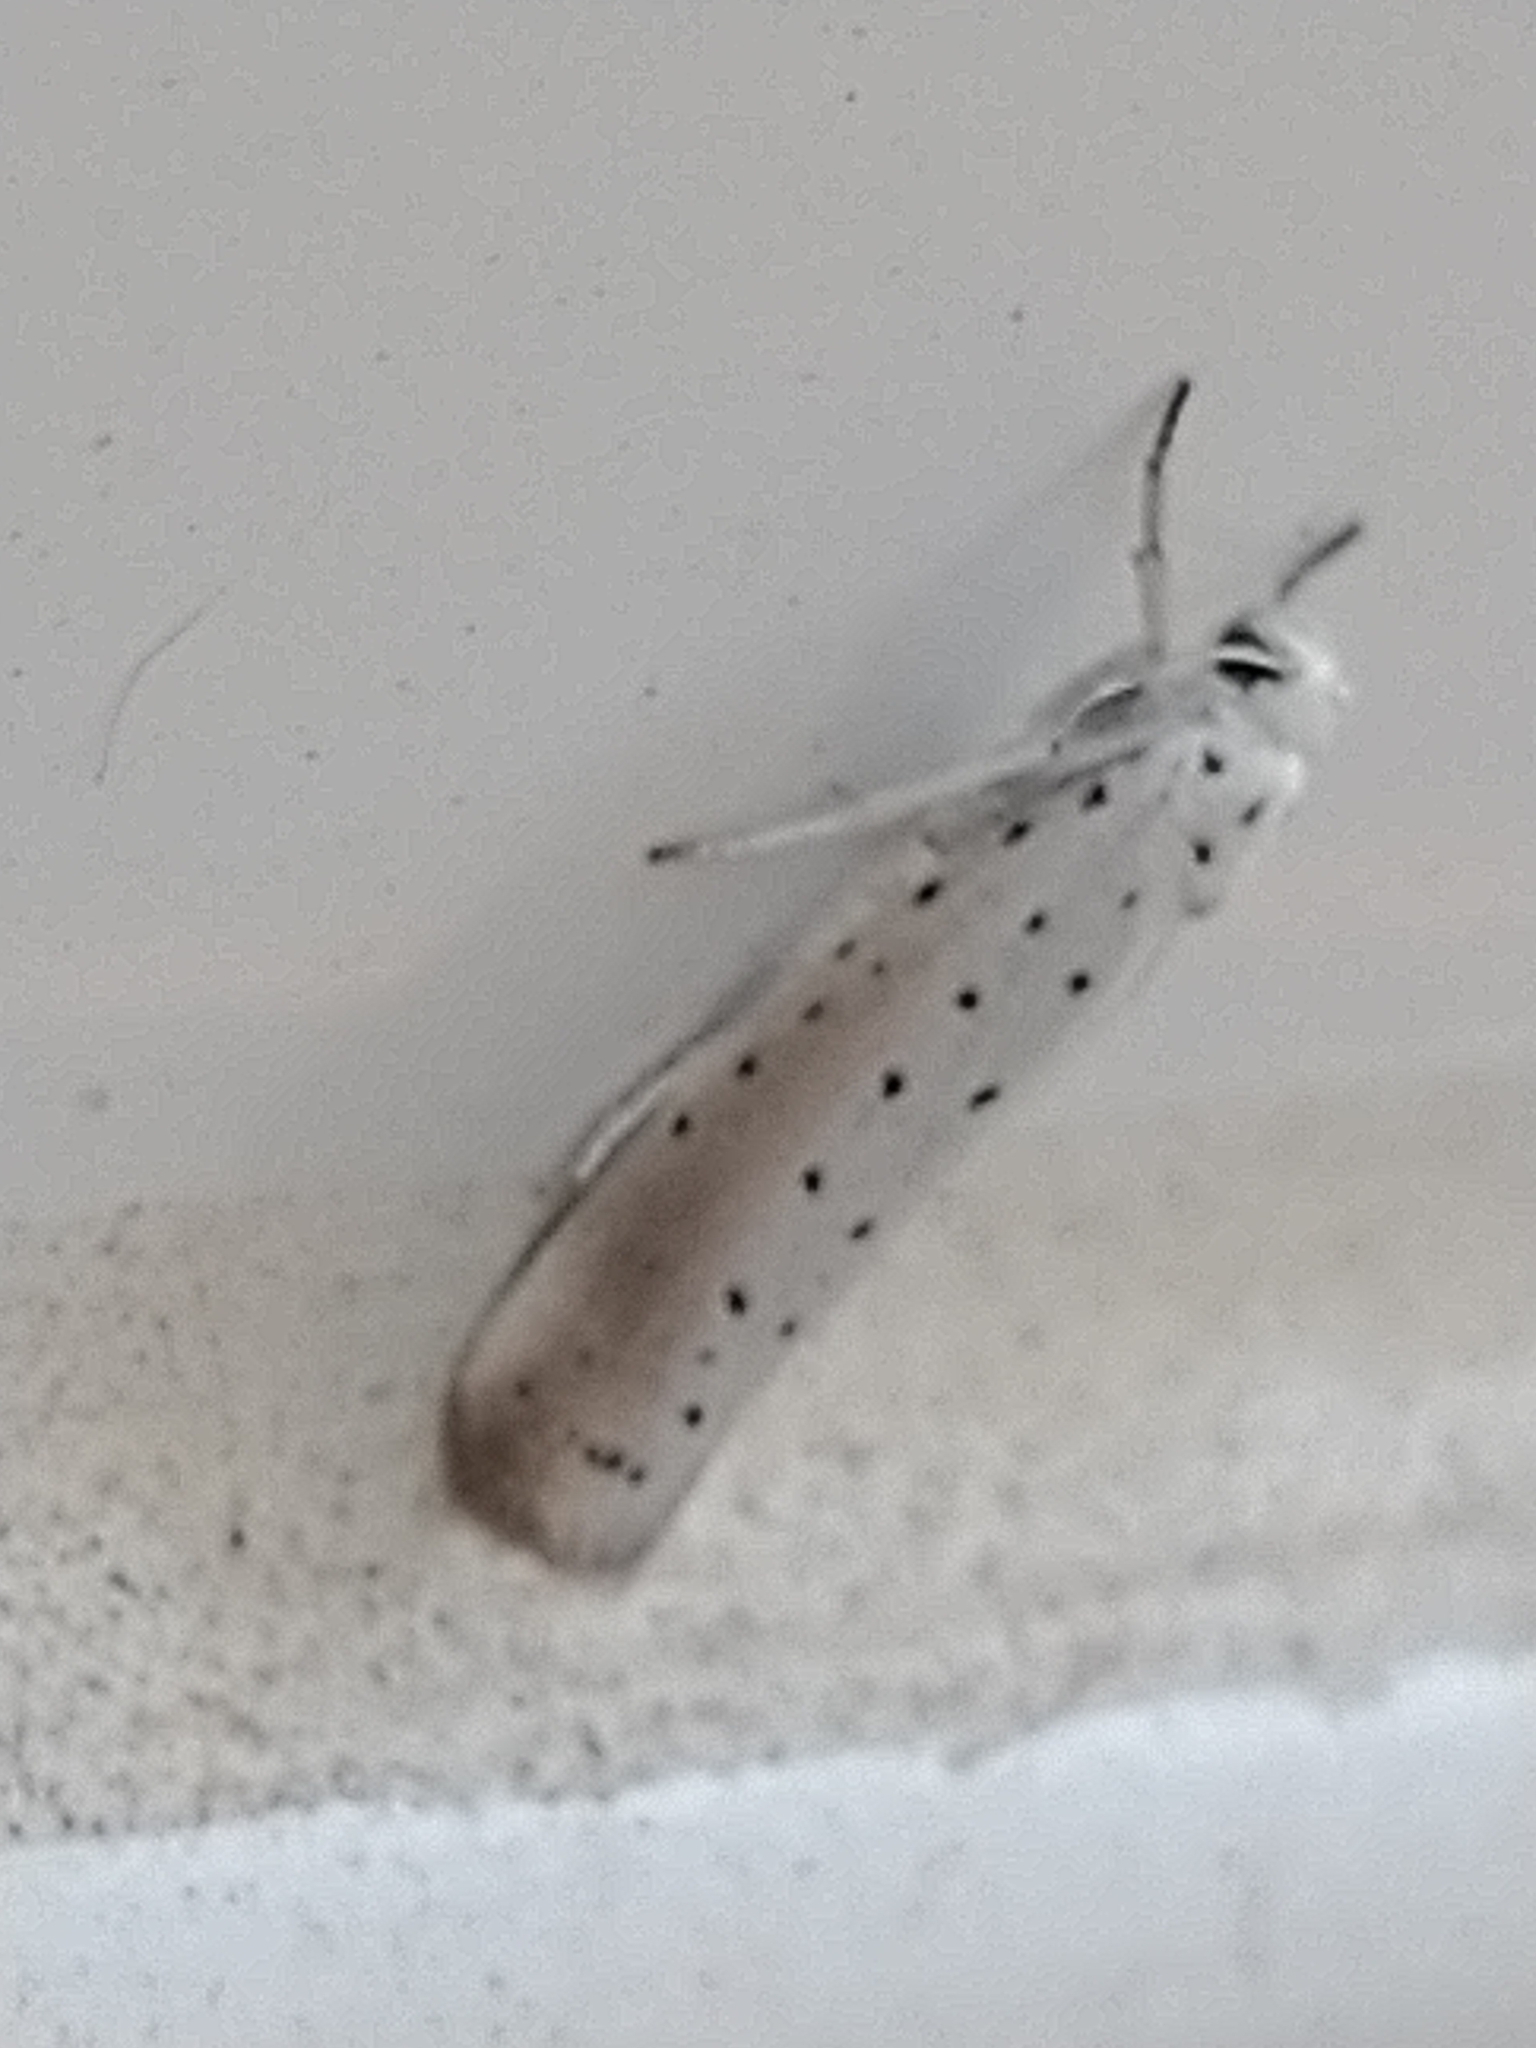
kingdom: Animalia
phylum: Arthropoda
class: Insecta
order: Lepidoptera
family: Yponomeutidae
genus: Yponomeuta
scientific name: Yponomeuta padella
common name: Orchard ermine
